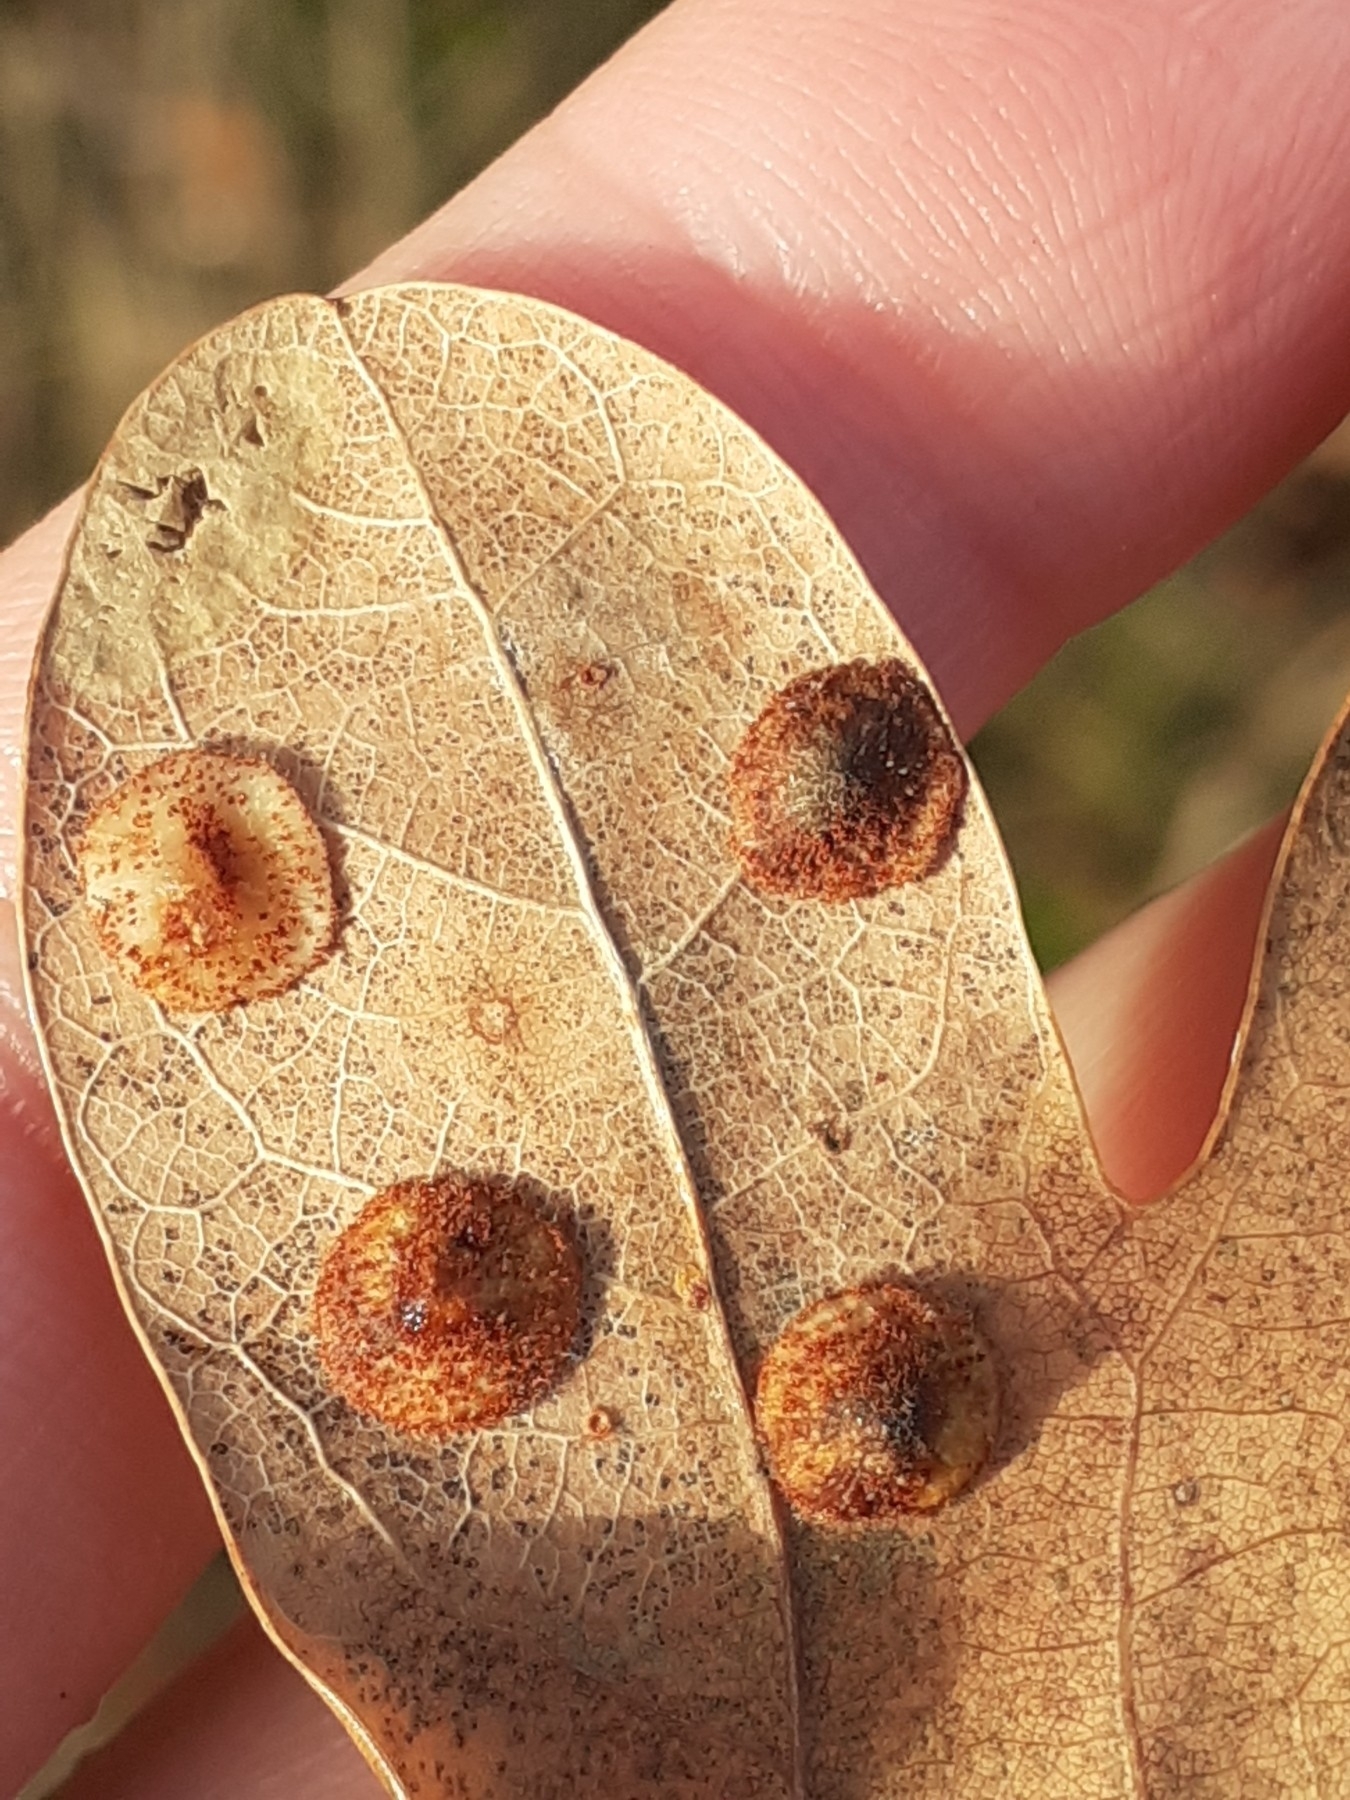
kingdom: Animalia
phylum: Arthropoda
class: Insecta
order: Hymenoptera
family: Cynipidae
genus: Neuroterus
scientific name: Neuroterus quercusbaccarum
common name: Common spangle gall
